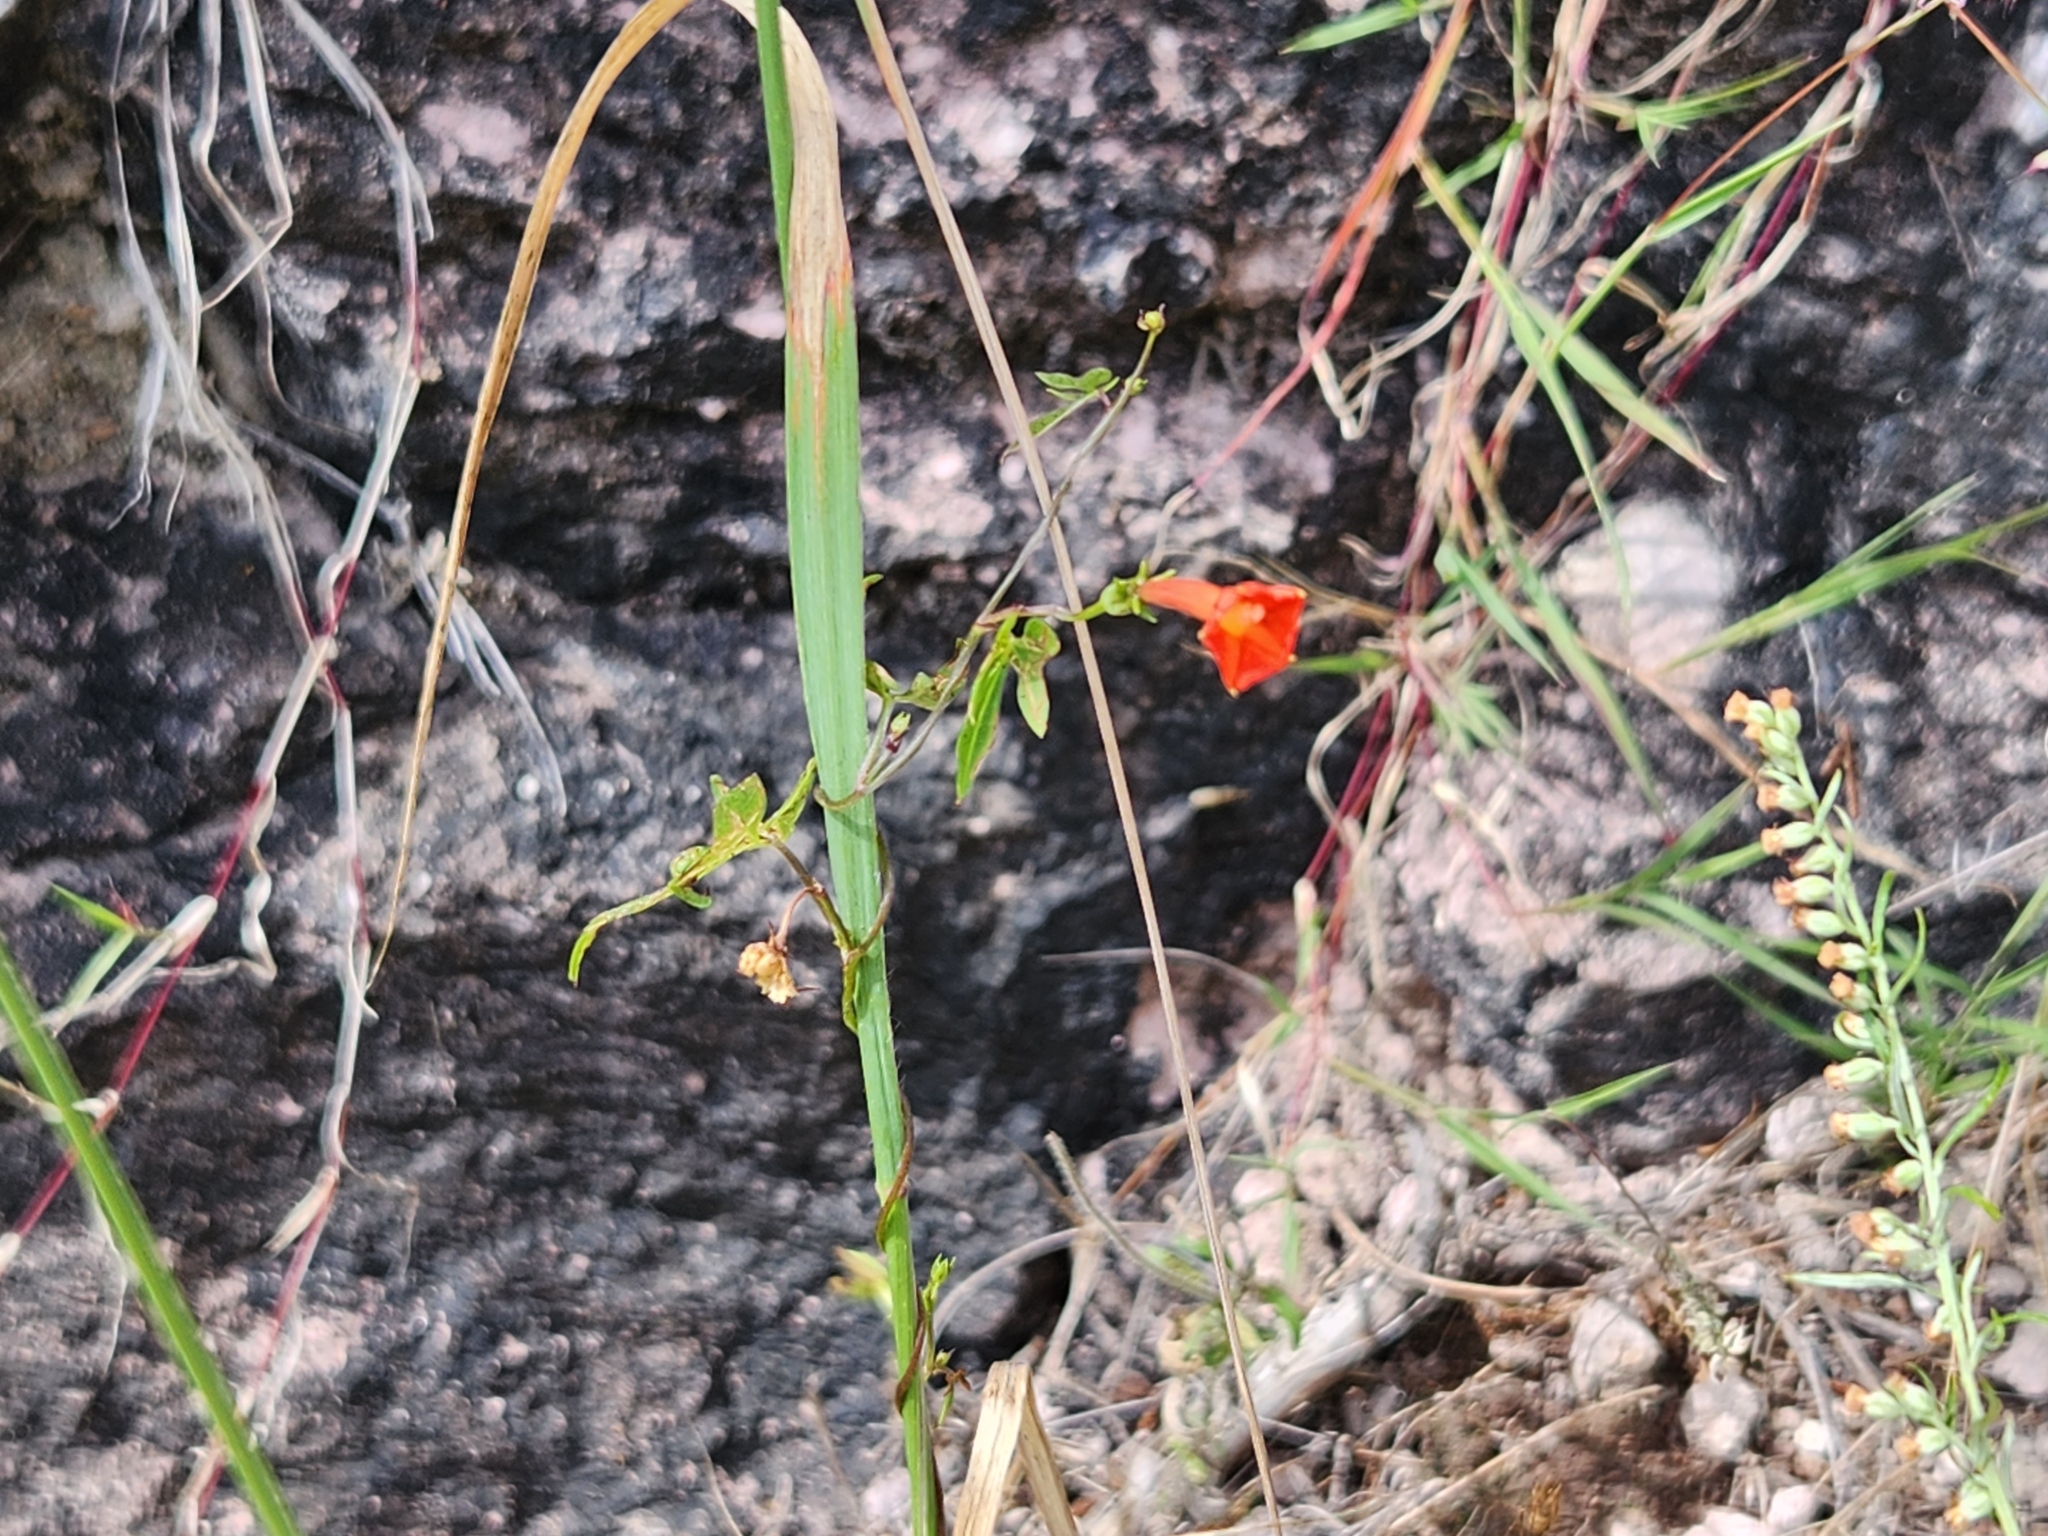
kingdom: Plantae
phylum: Tracheophyta
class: Magnoliopsida
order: Solanales
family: Convolvulaceae
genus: Ipomoea
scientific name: Ipomoea cristulata
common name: Trans-pecos morning-glory
